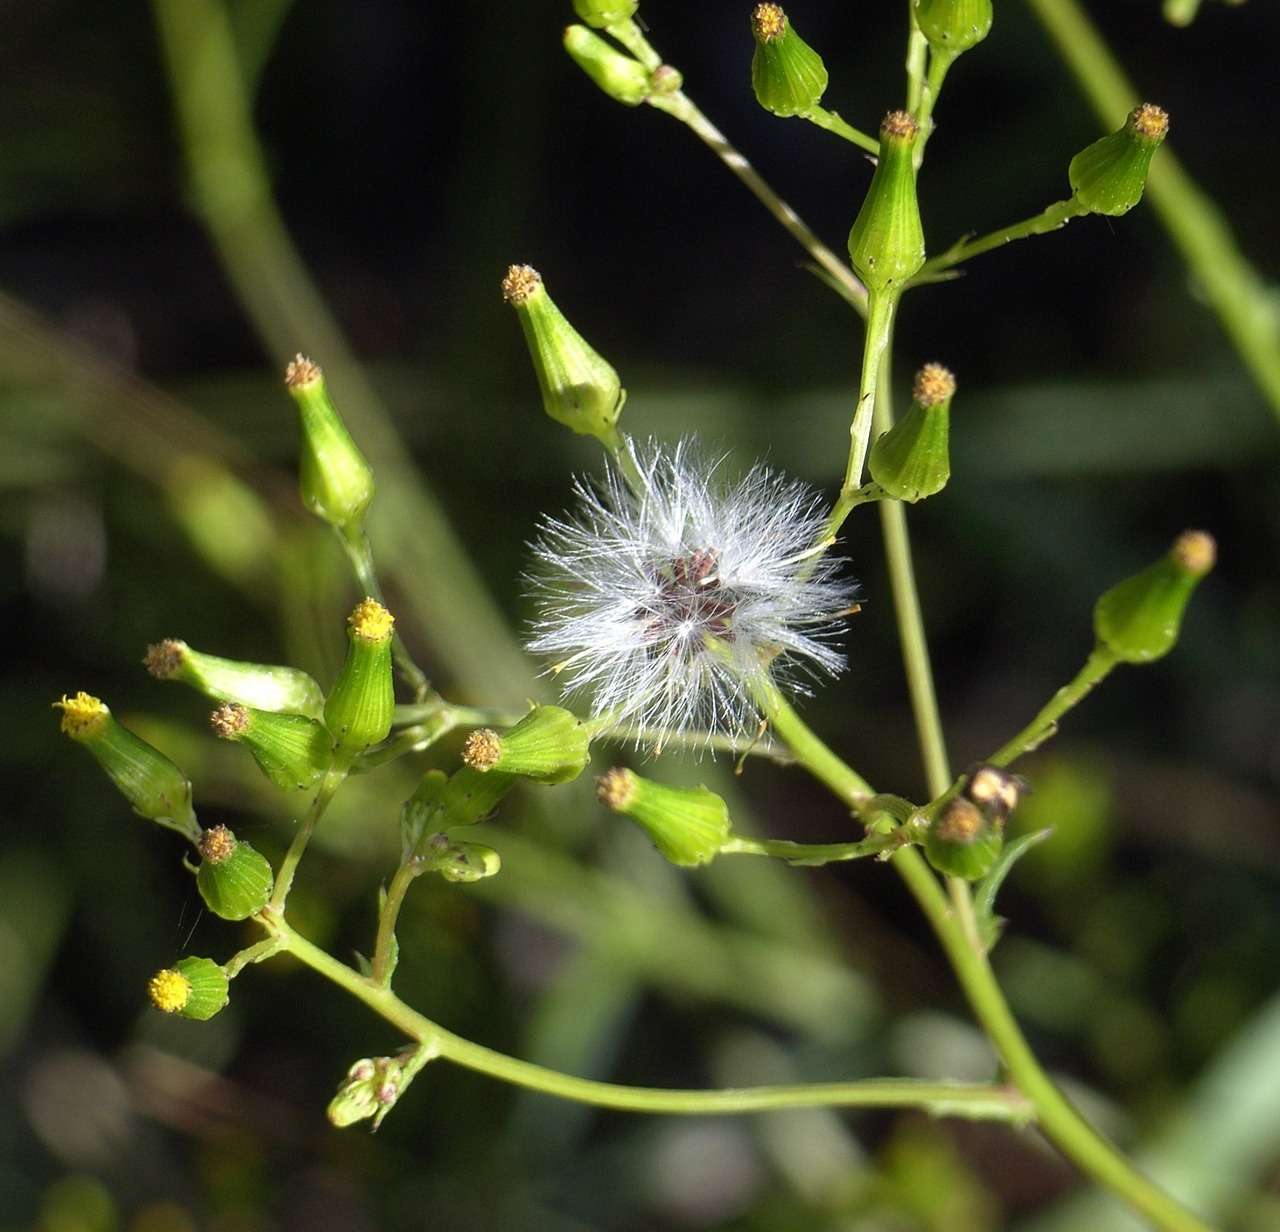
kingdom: Plantae
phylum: Tracheophyta
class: Magnoliopsida
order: Asterales
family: Asteraceae
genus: Senecio
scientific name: Senecio hispidulus
